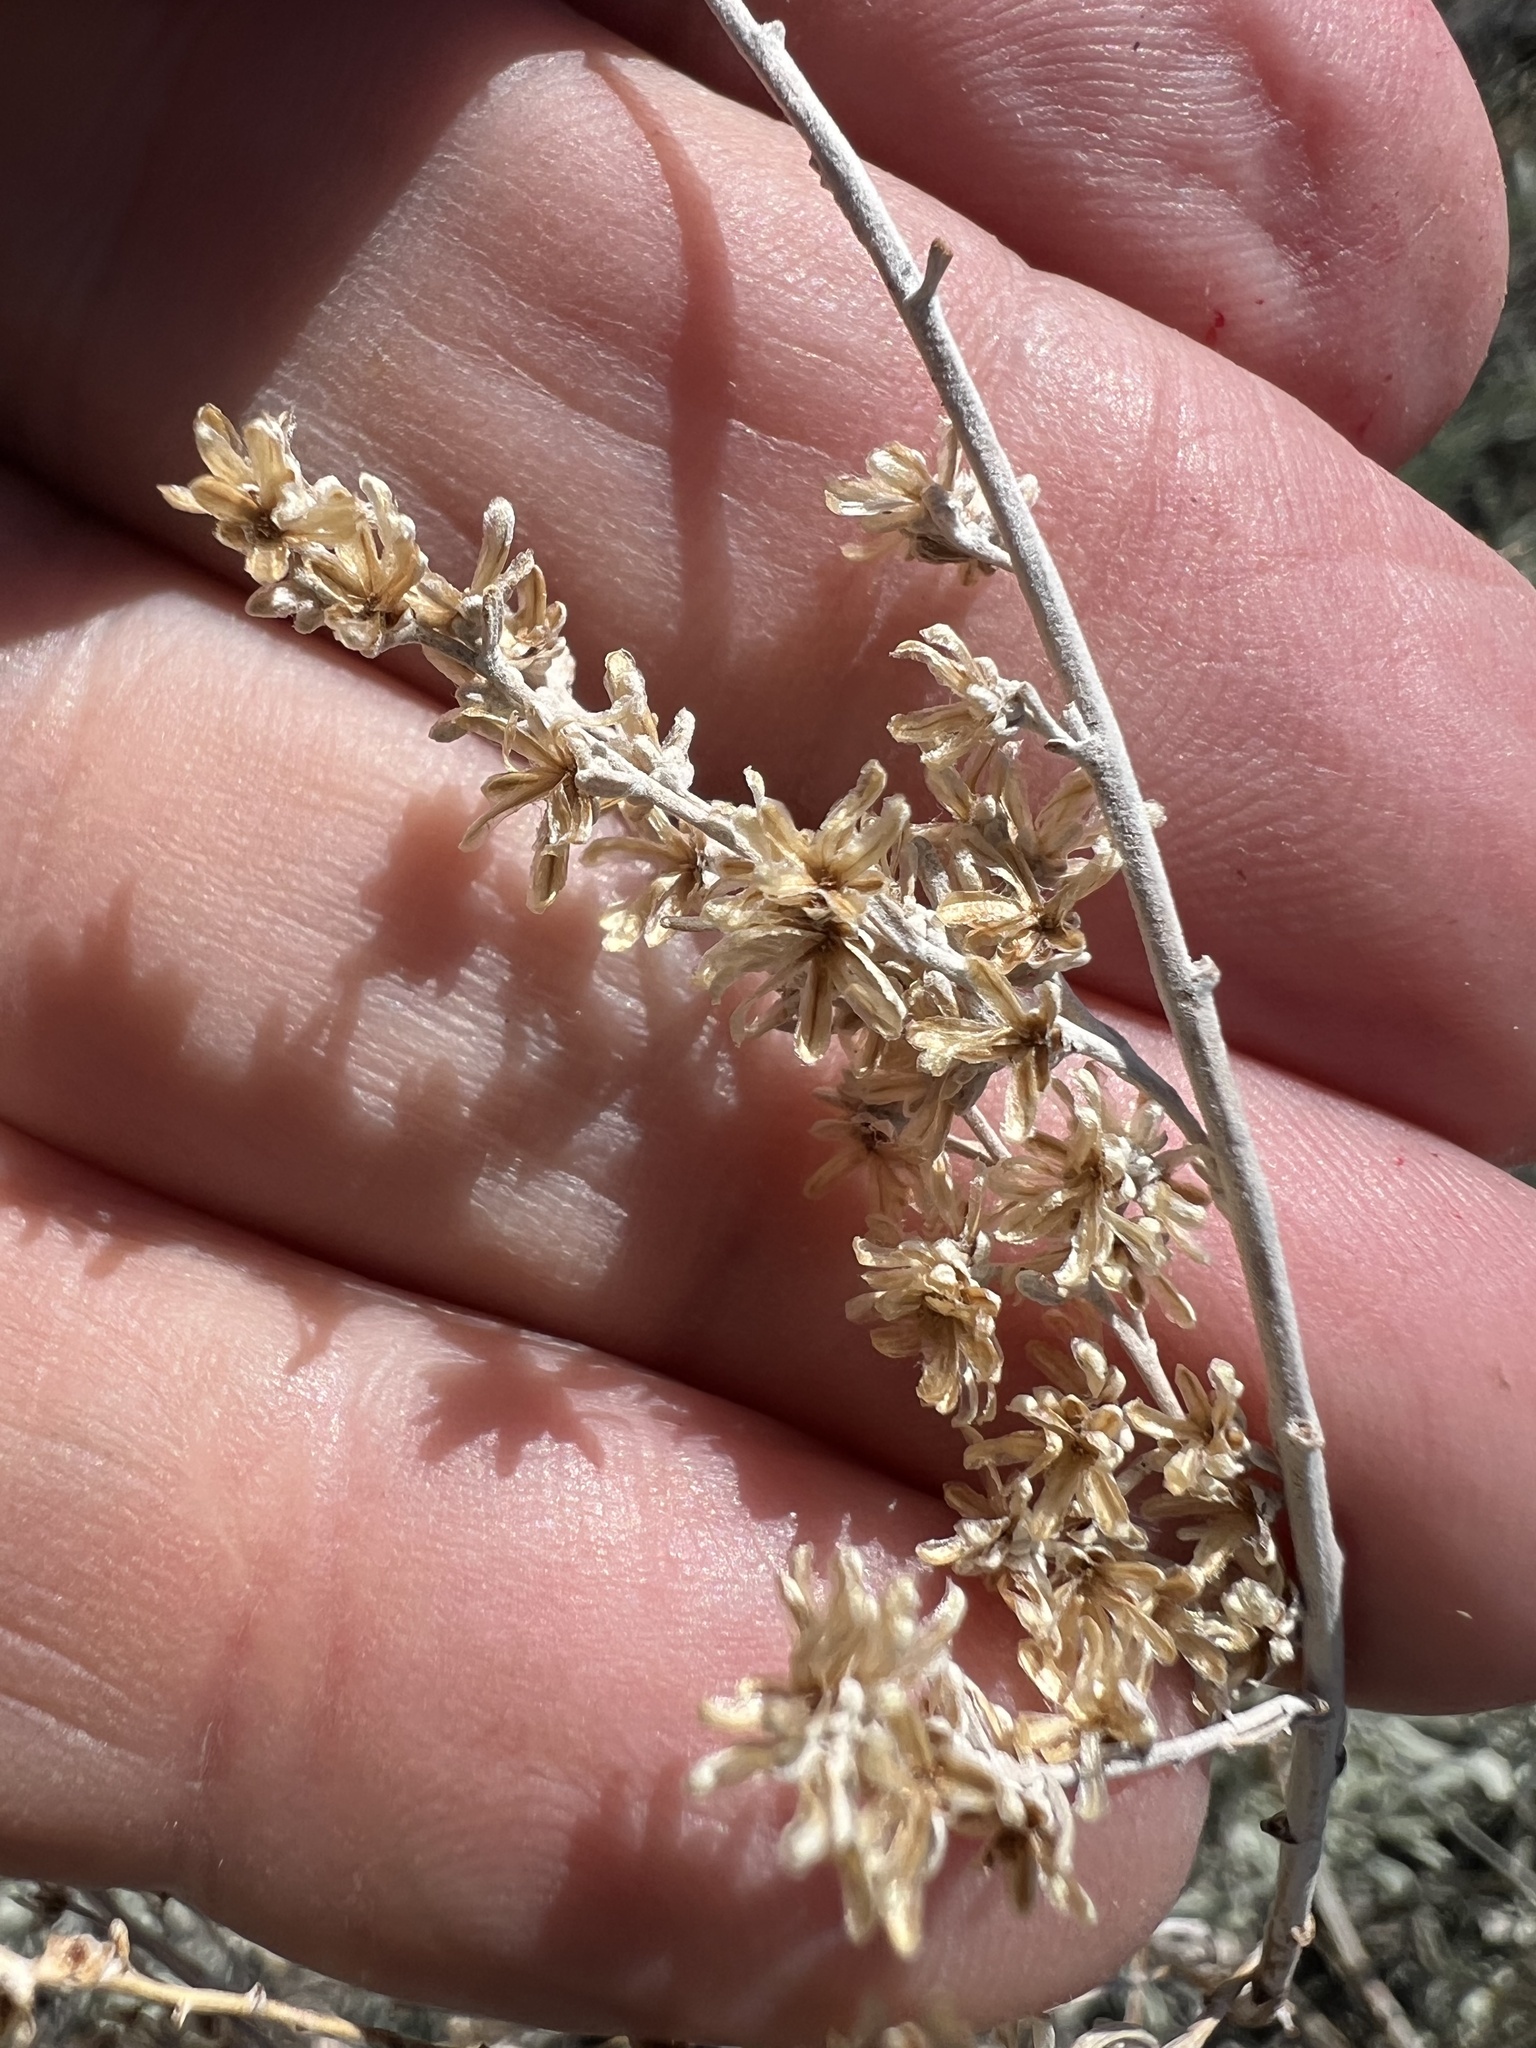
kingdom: Plantae
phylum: Tracheophyta
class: Magnoliopsida
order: Asterales
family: Asteraceae
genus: Artemisia
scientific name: Artemisia tridentata
